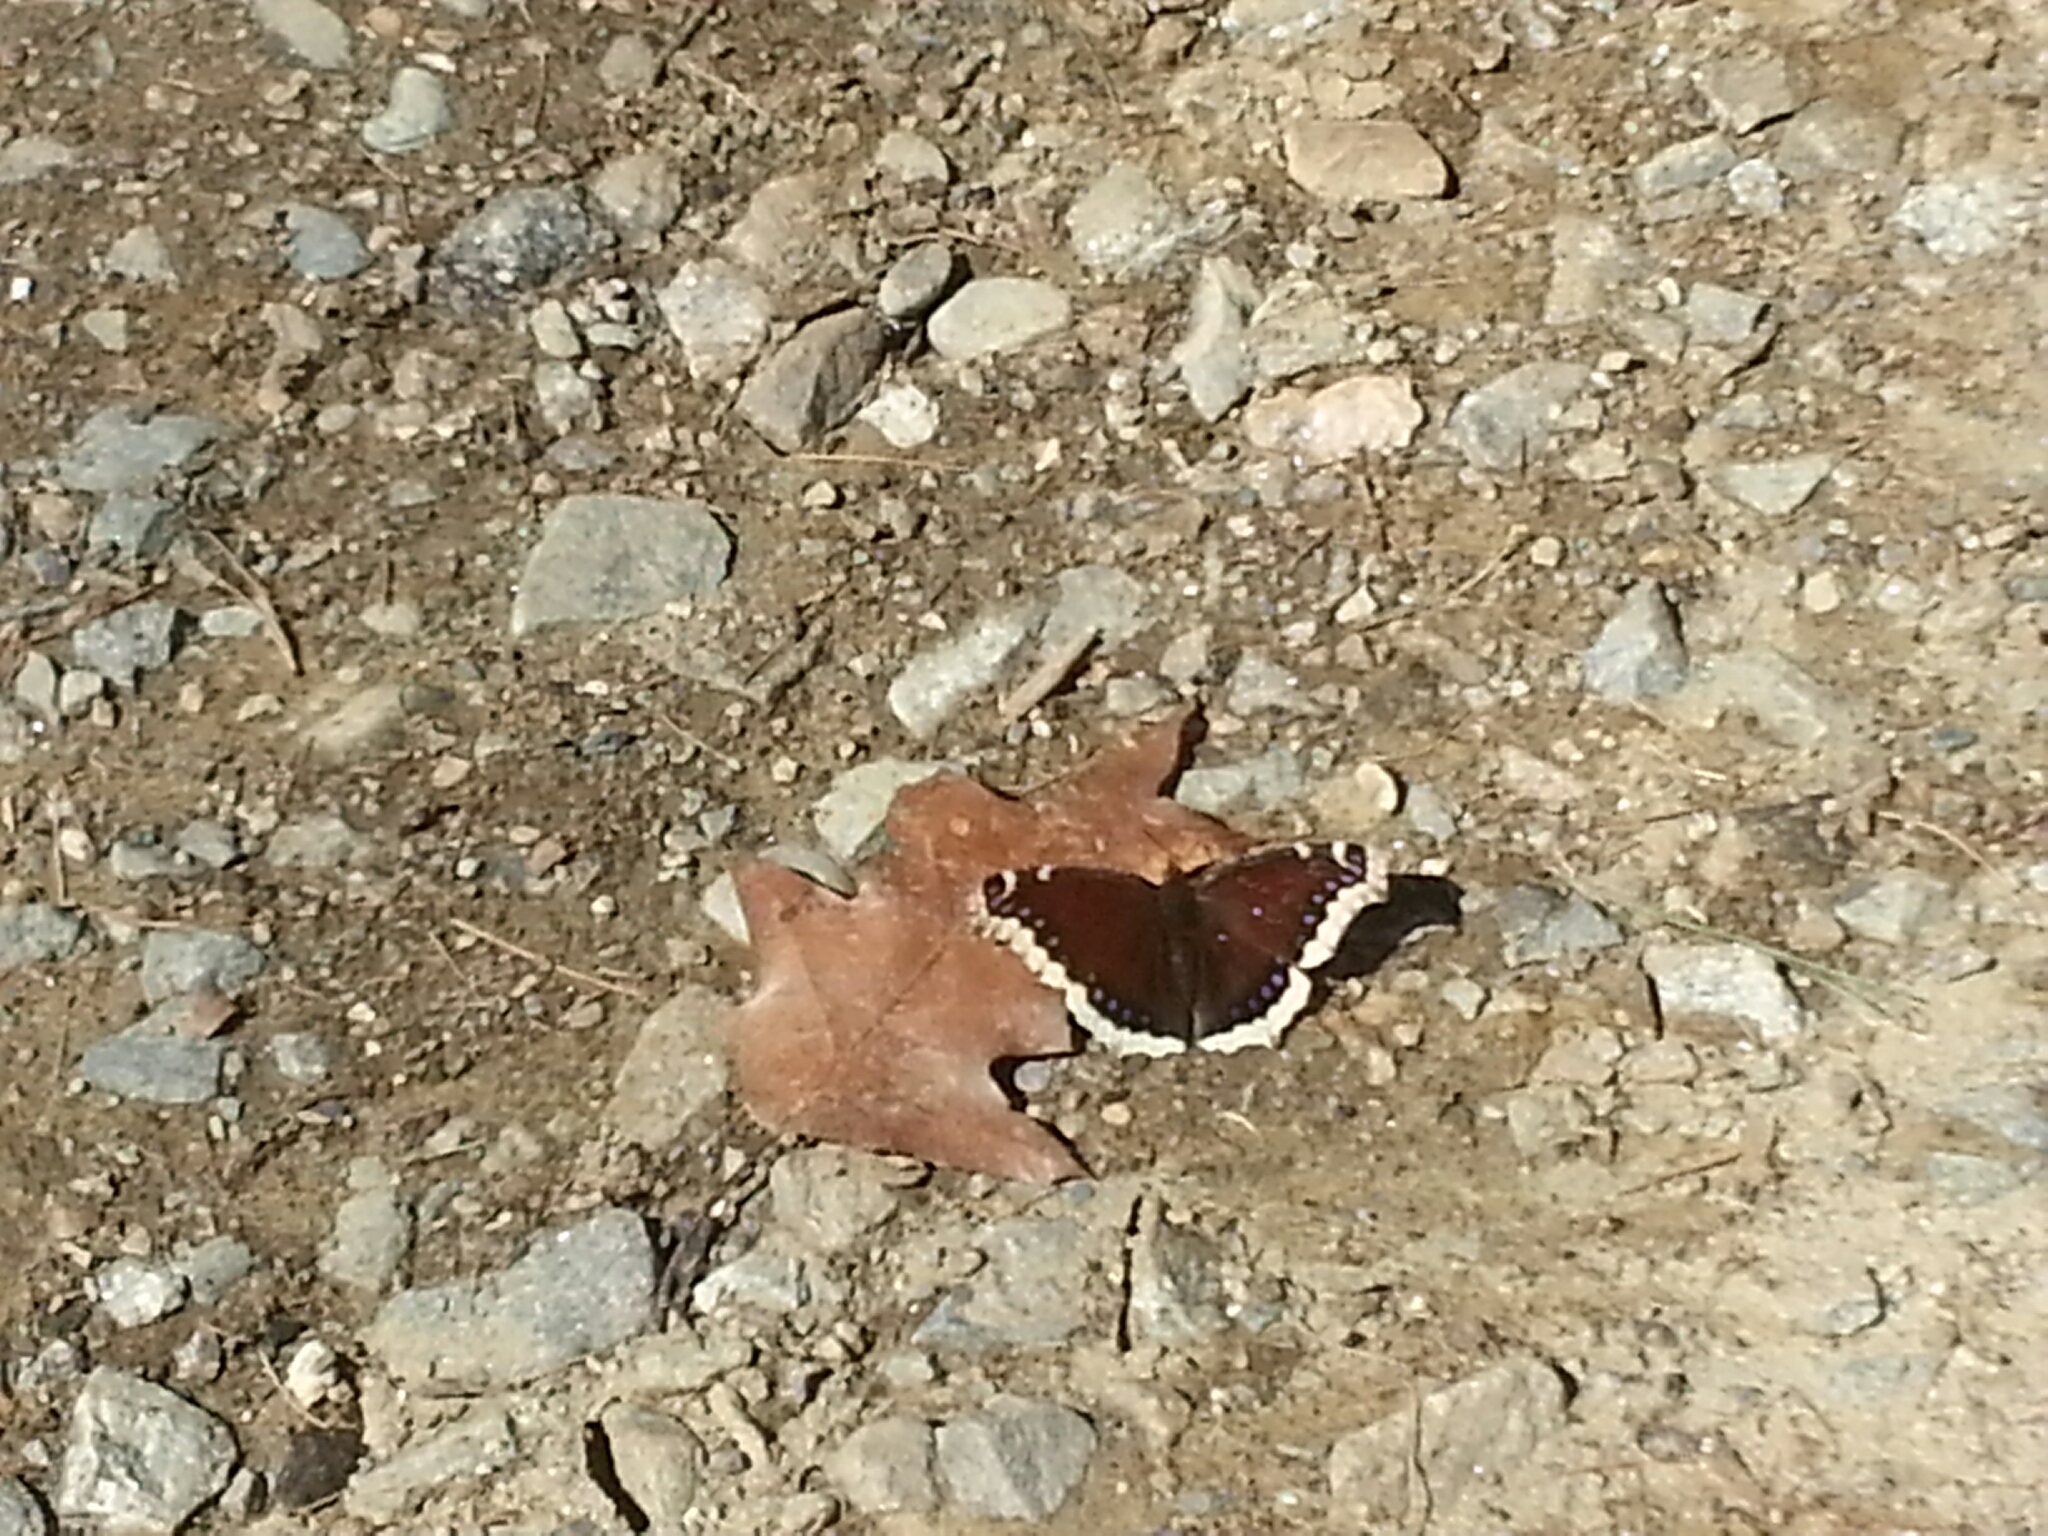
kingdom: Animalia
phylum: Arthropoda
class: Insecta
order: Lepidoptera
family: Nymphalidae
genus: Nymphalis
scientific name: Nymphalis antiopa
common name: Camberwell beauty
